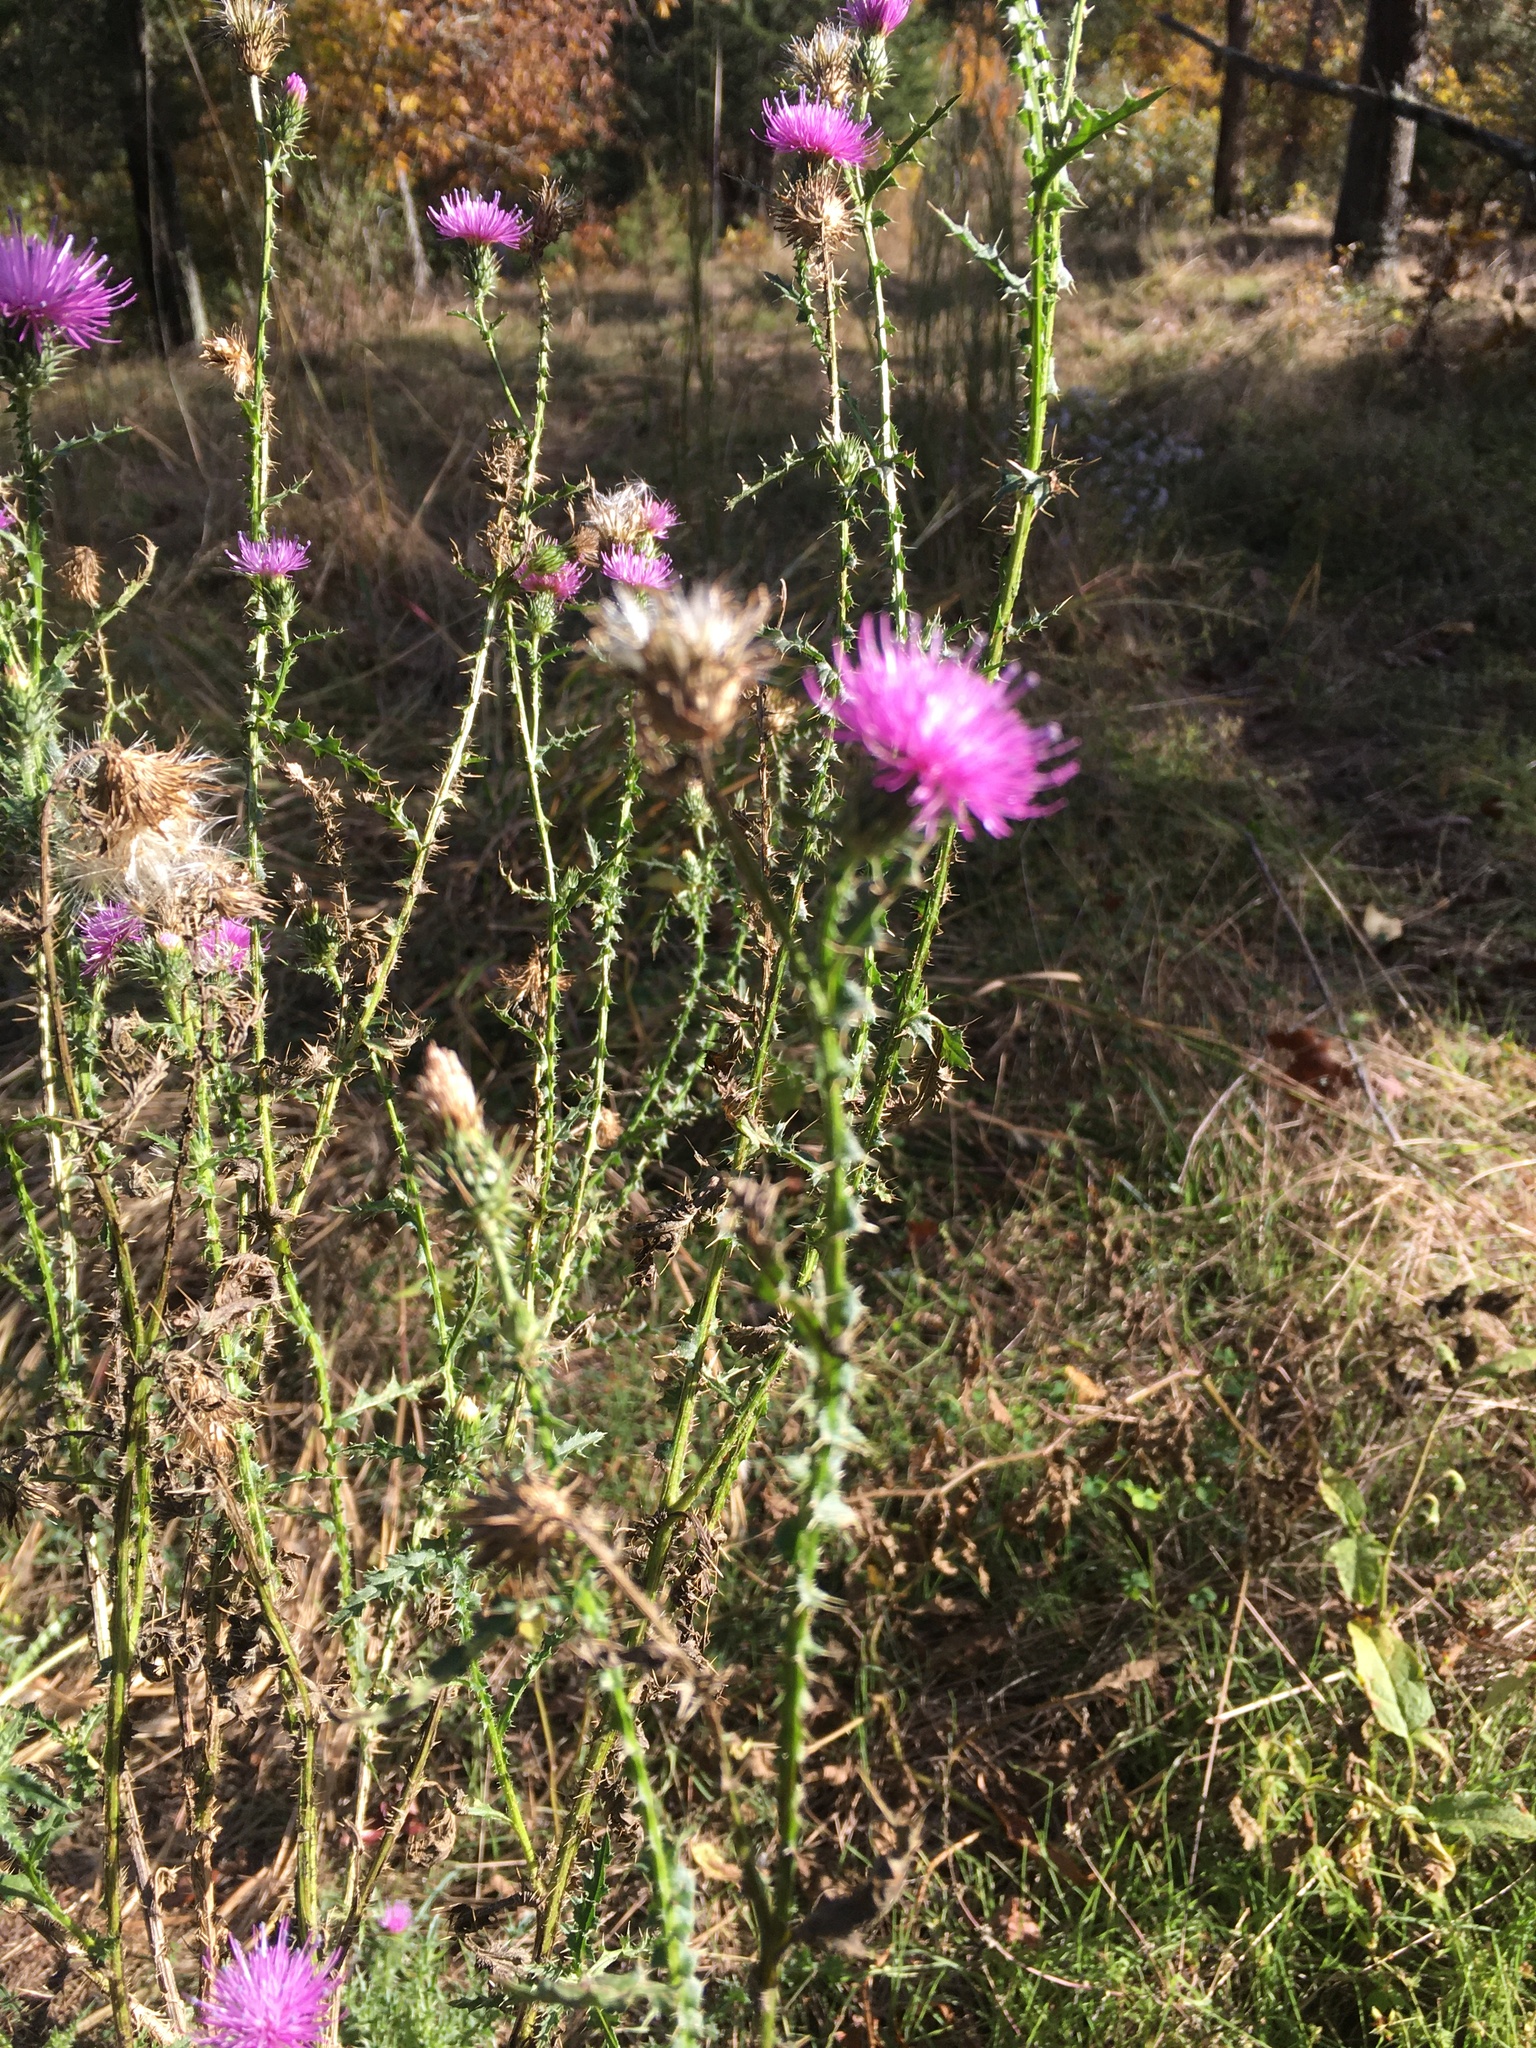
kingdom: Plantae
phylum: Tracheophyta
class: Magnoliopsida
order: Asterales
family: Asteraceae
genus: Carduus
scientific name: Carduus acanthoides
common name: Plumeless thistle
